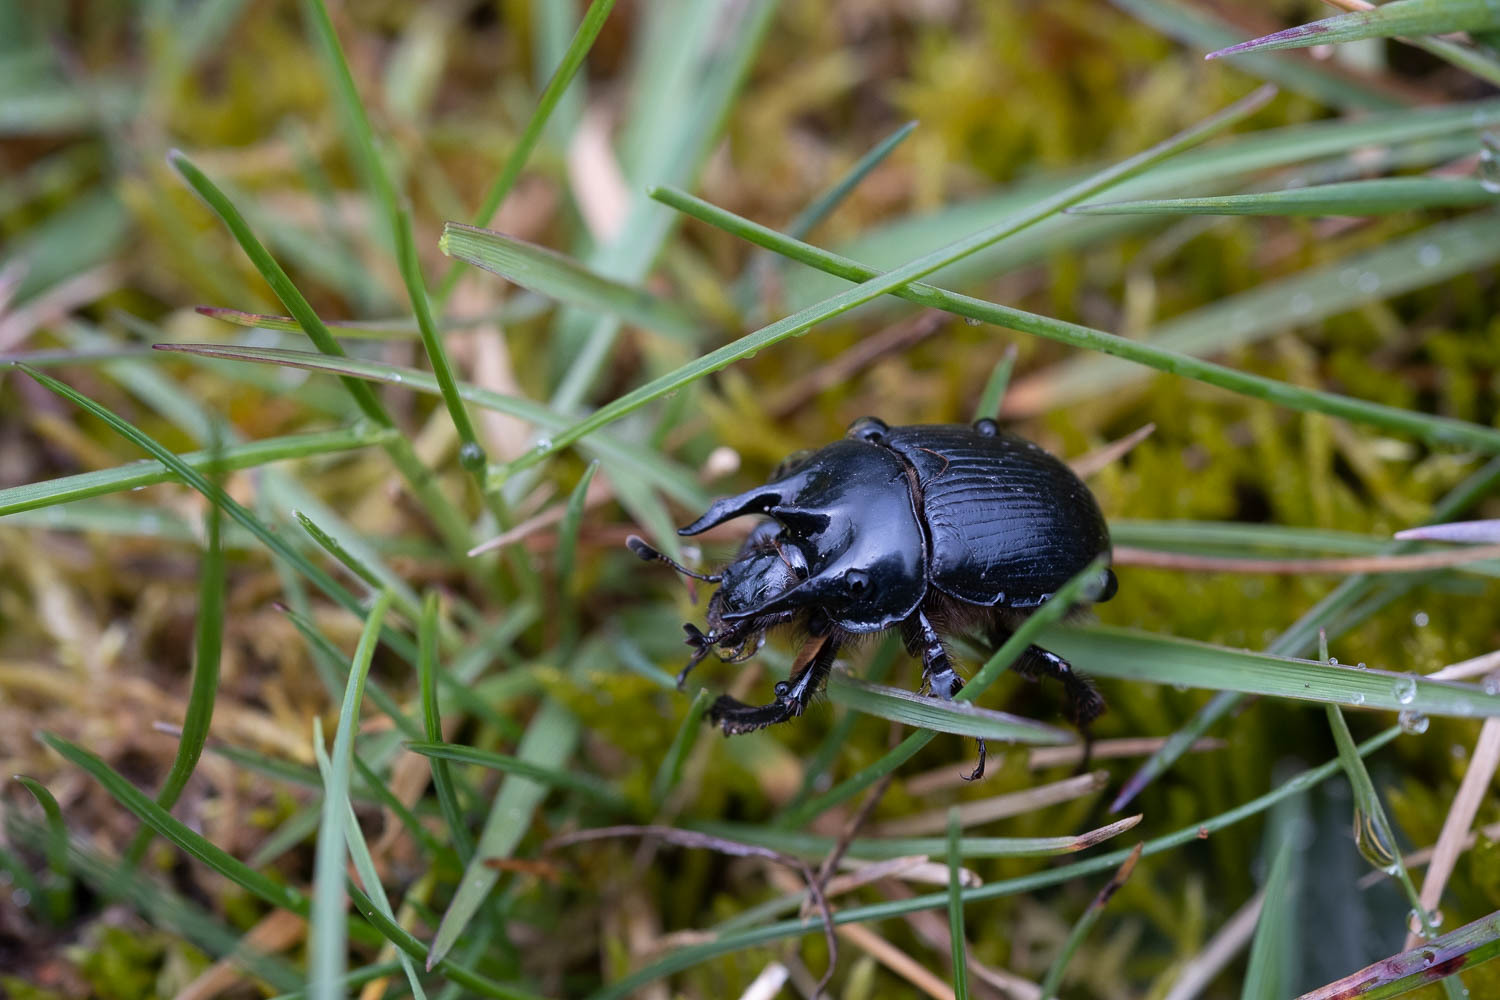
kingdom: Animalia
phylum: Arthropoda
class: Insecta
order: Coleoptera
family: Geotrupidae
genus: Typhaeus
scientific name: Typhaeus typhoeus
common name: Minotaur beetle
